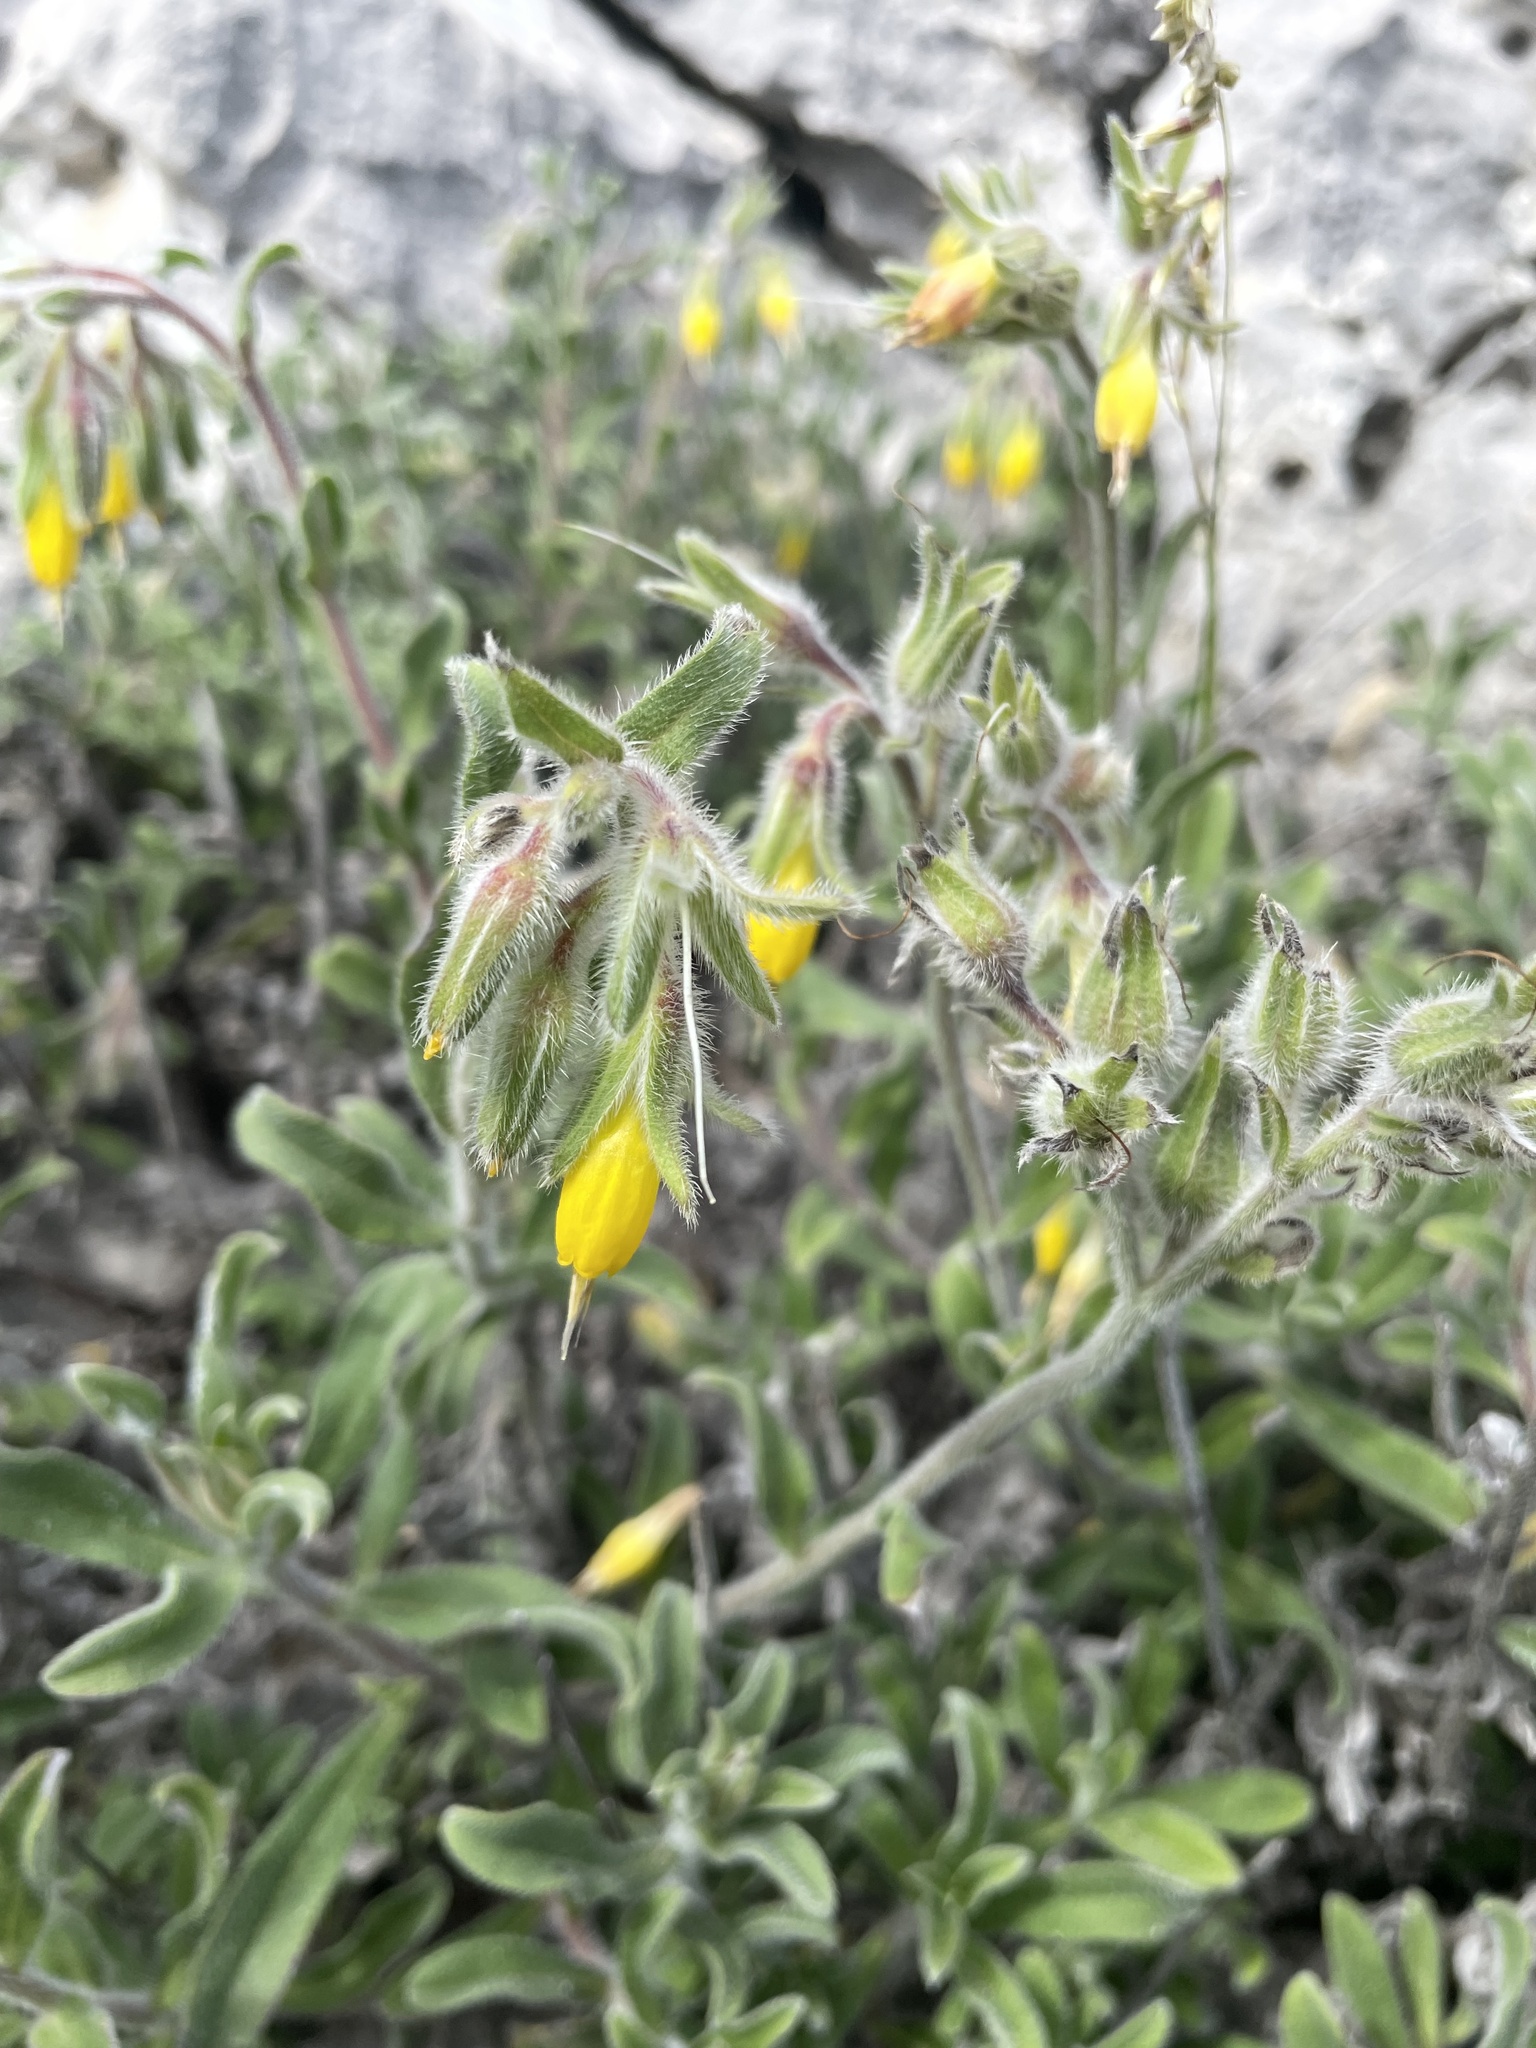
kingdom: Plantae
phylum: Tracheophyta
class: Magnoliopsida
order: Boraginales
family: Boraginaceae
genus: Onosma
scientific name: Onosma frutescens
